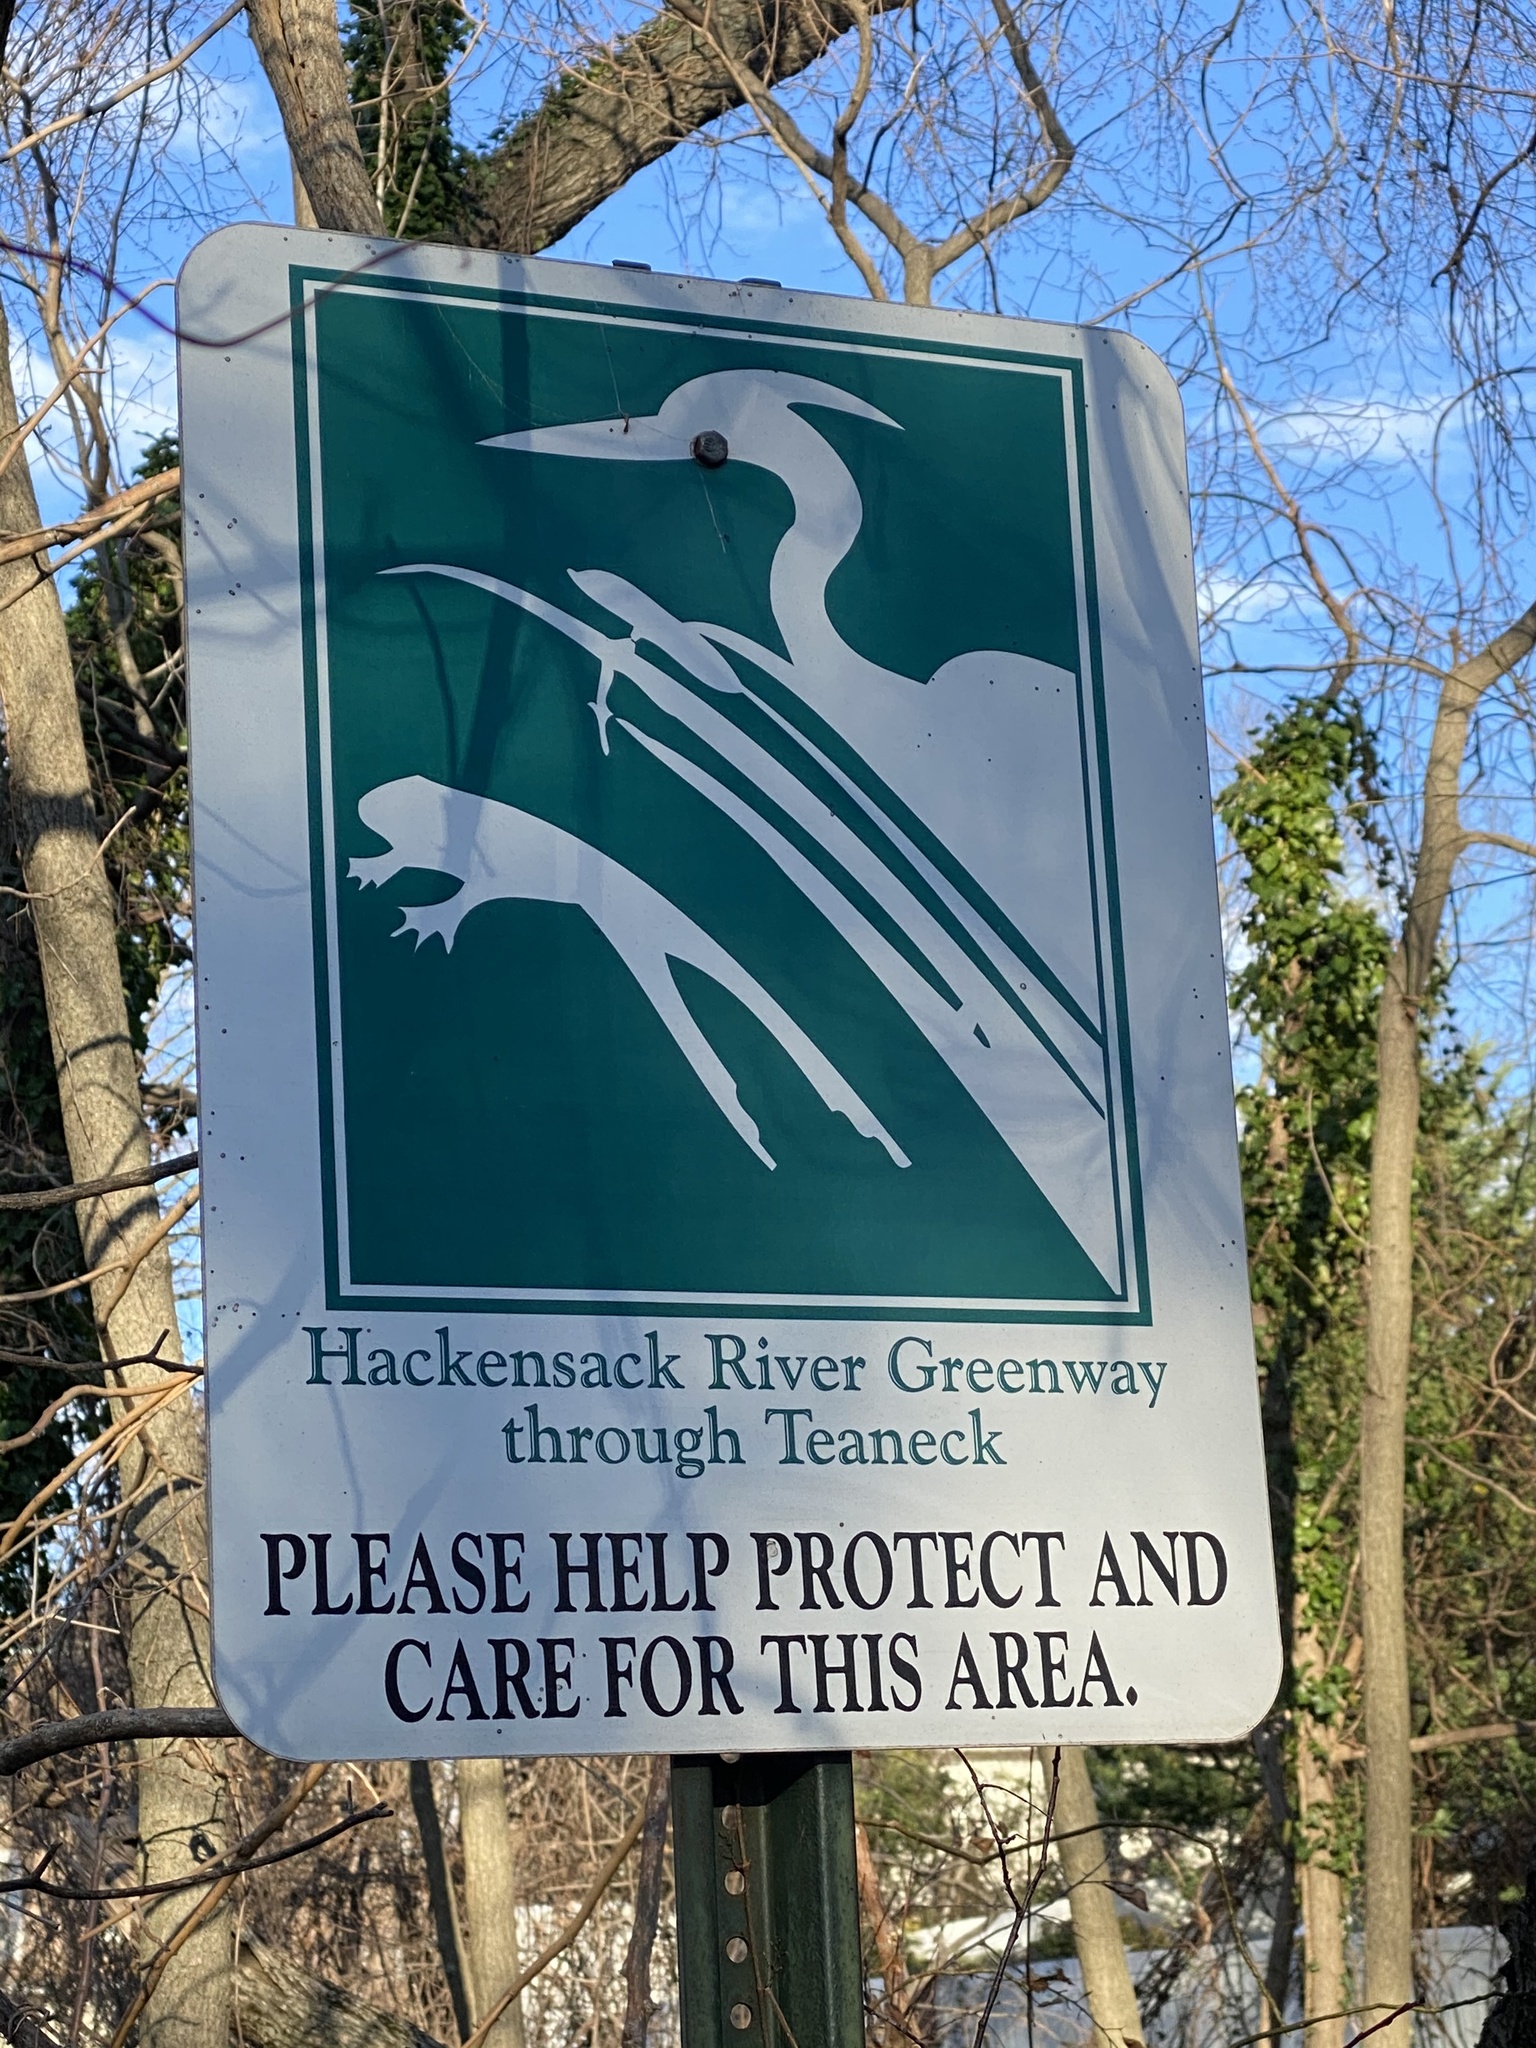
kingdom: Plantae
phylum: Tracheophyta
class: Magnoliopsida
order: Gentianales
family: Rubiaceae
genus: Galium
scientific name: Galium aparine
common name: Cleavers
